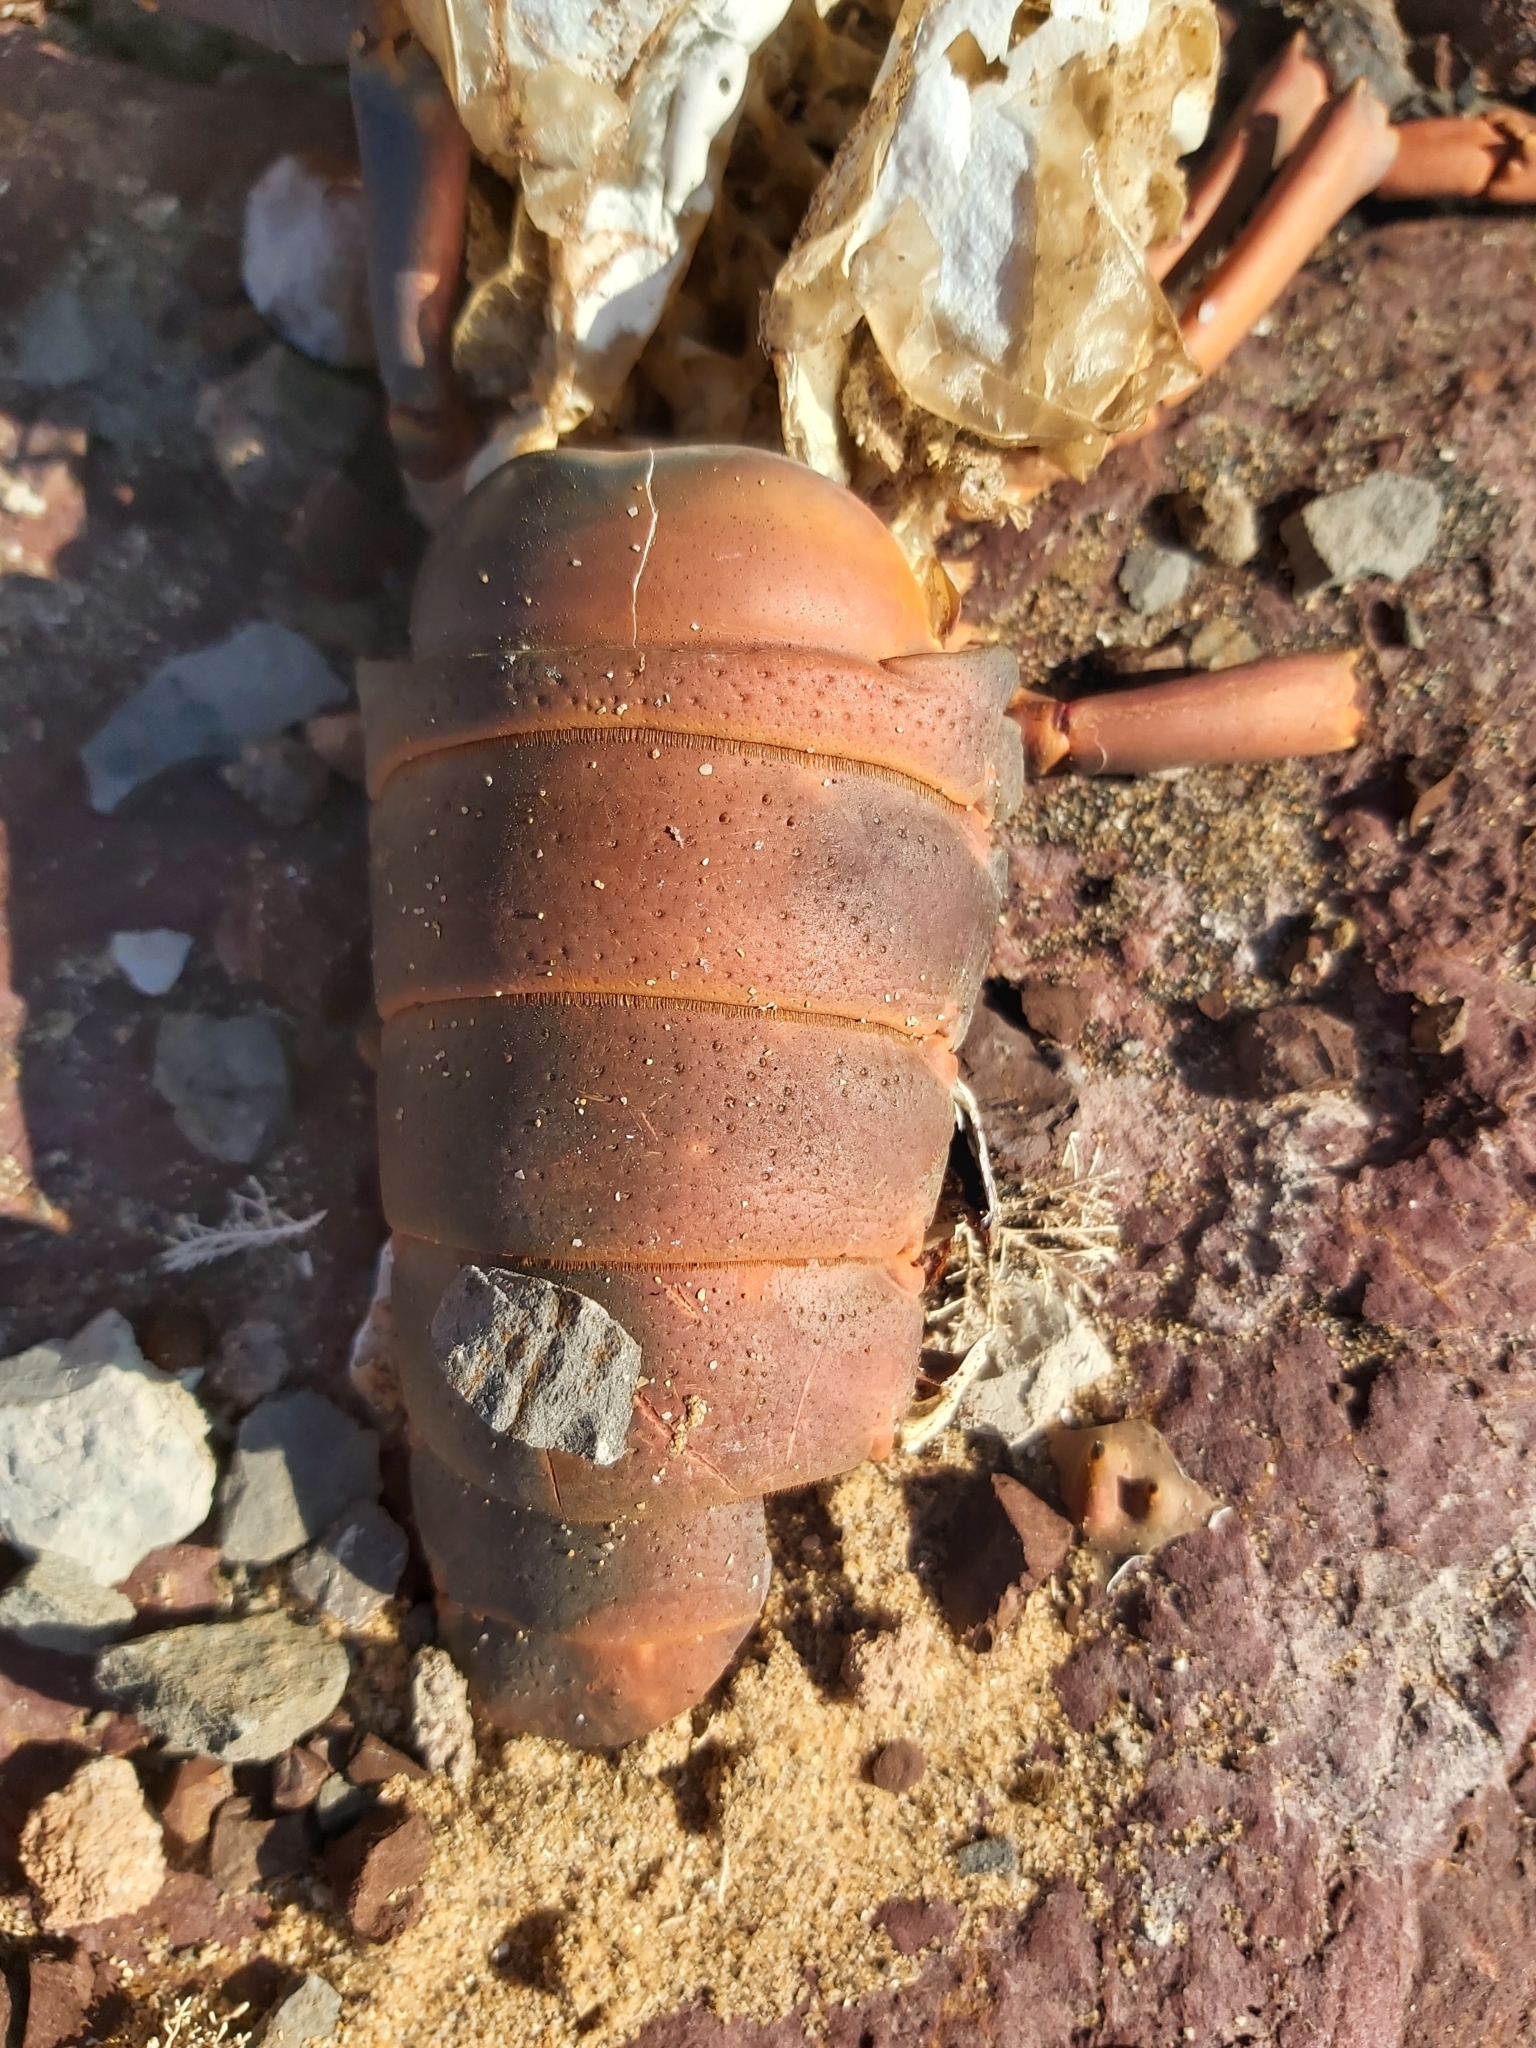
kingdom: Animalia
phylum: Arthropoda
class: Malacostraca
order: Decapoda
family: Palinuridae
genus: Sagmariasus
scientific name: Sagmariasus verreauxi
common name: Green rock lobster
